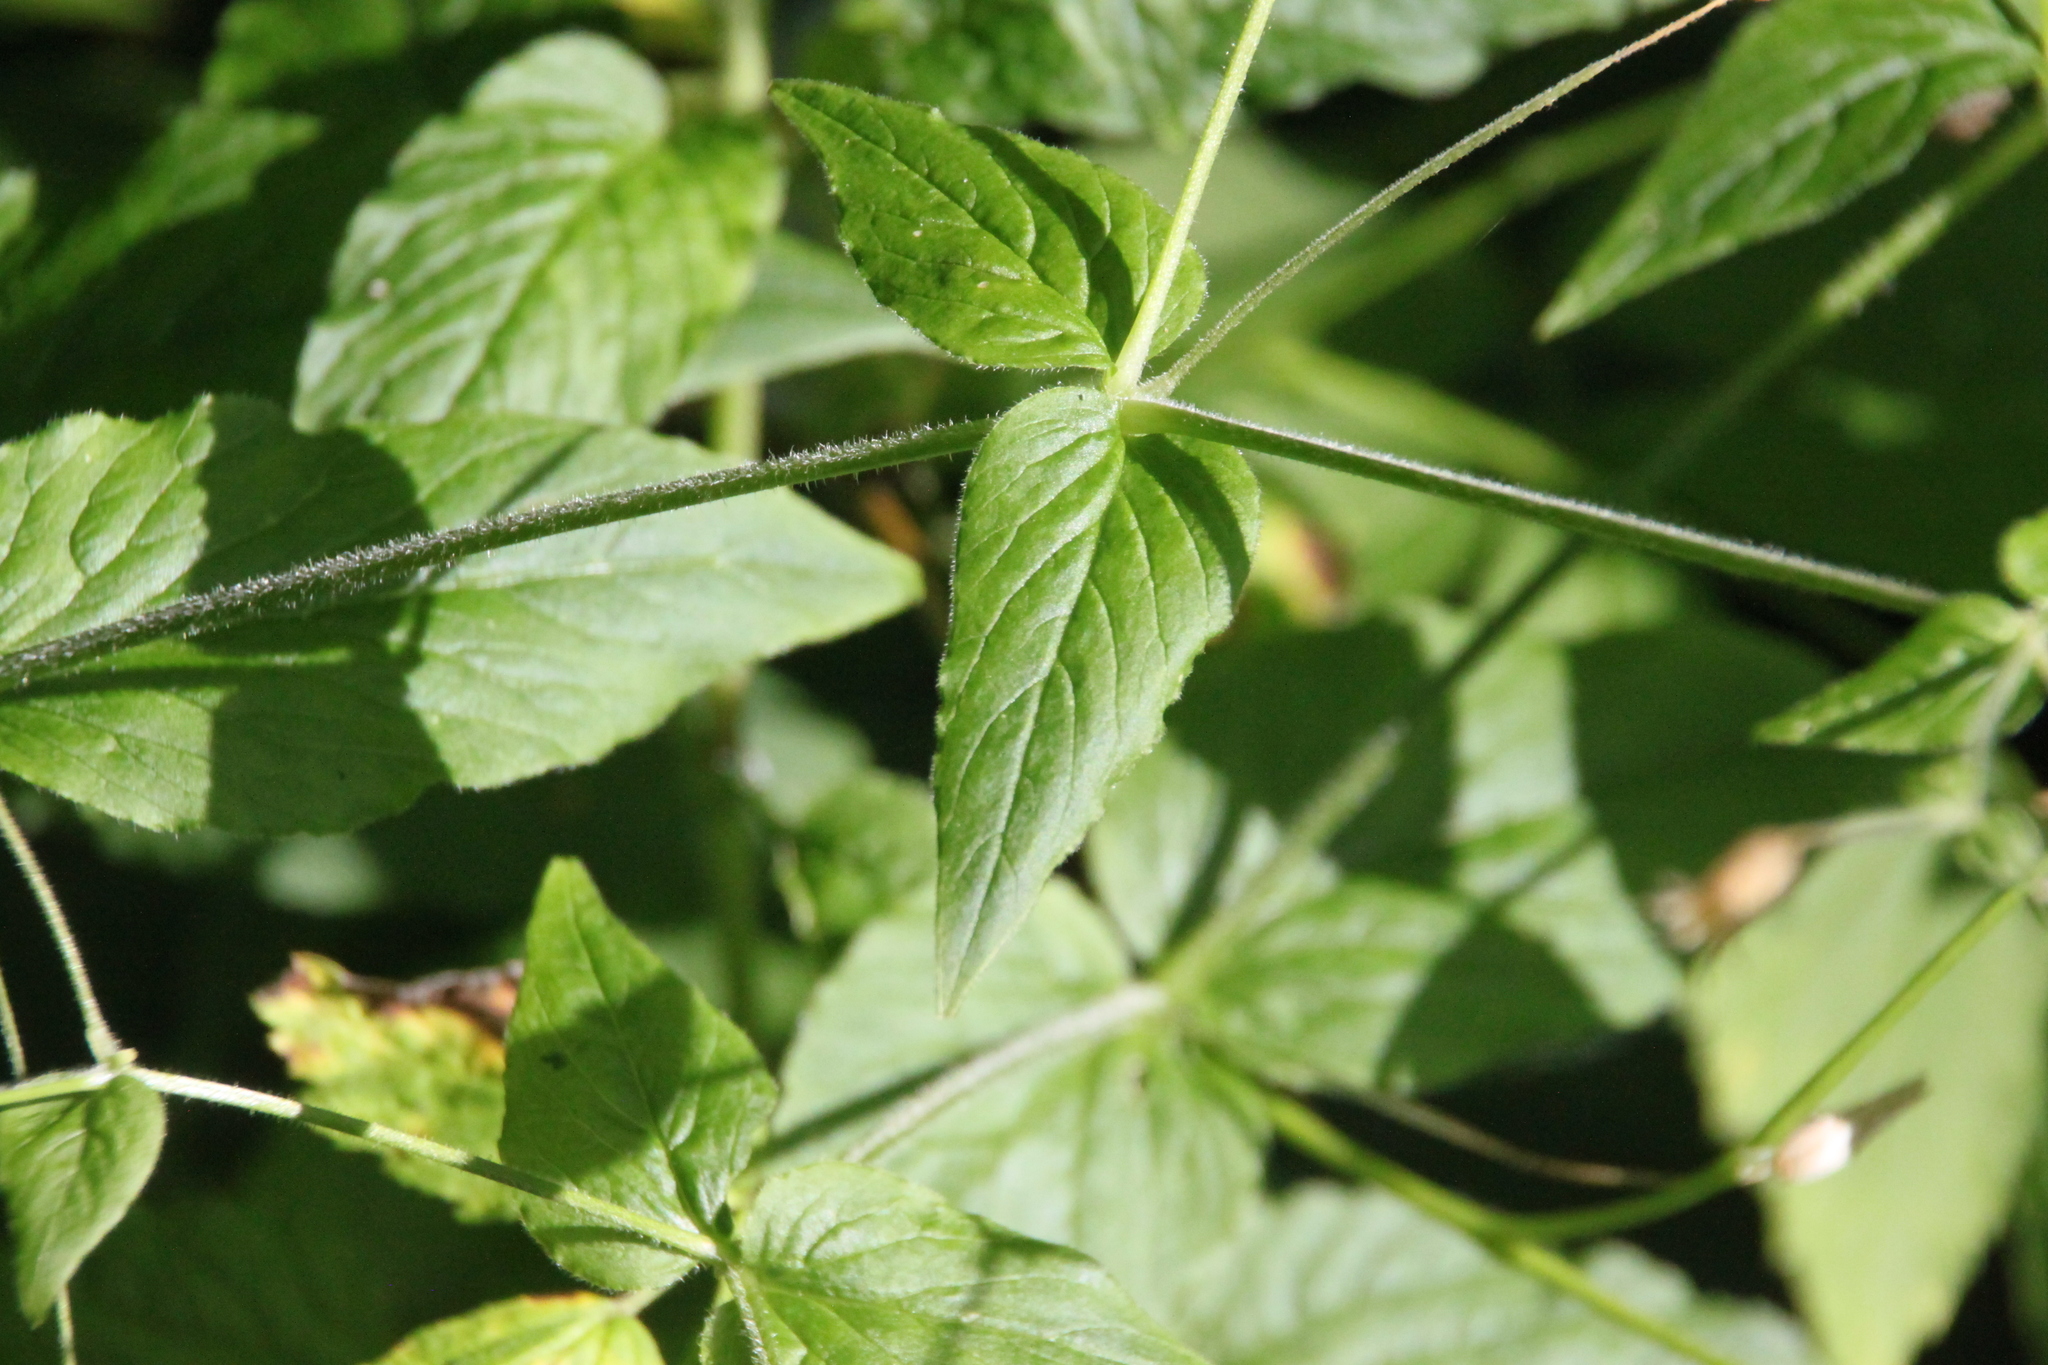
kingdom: Plantae
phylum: Tracheophyta
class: Magnoliopsida
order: Caryophyllales
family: Caryophyllaceae
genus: Stellaria
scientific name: Stellaria nemorum
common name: Wood stitchwort
